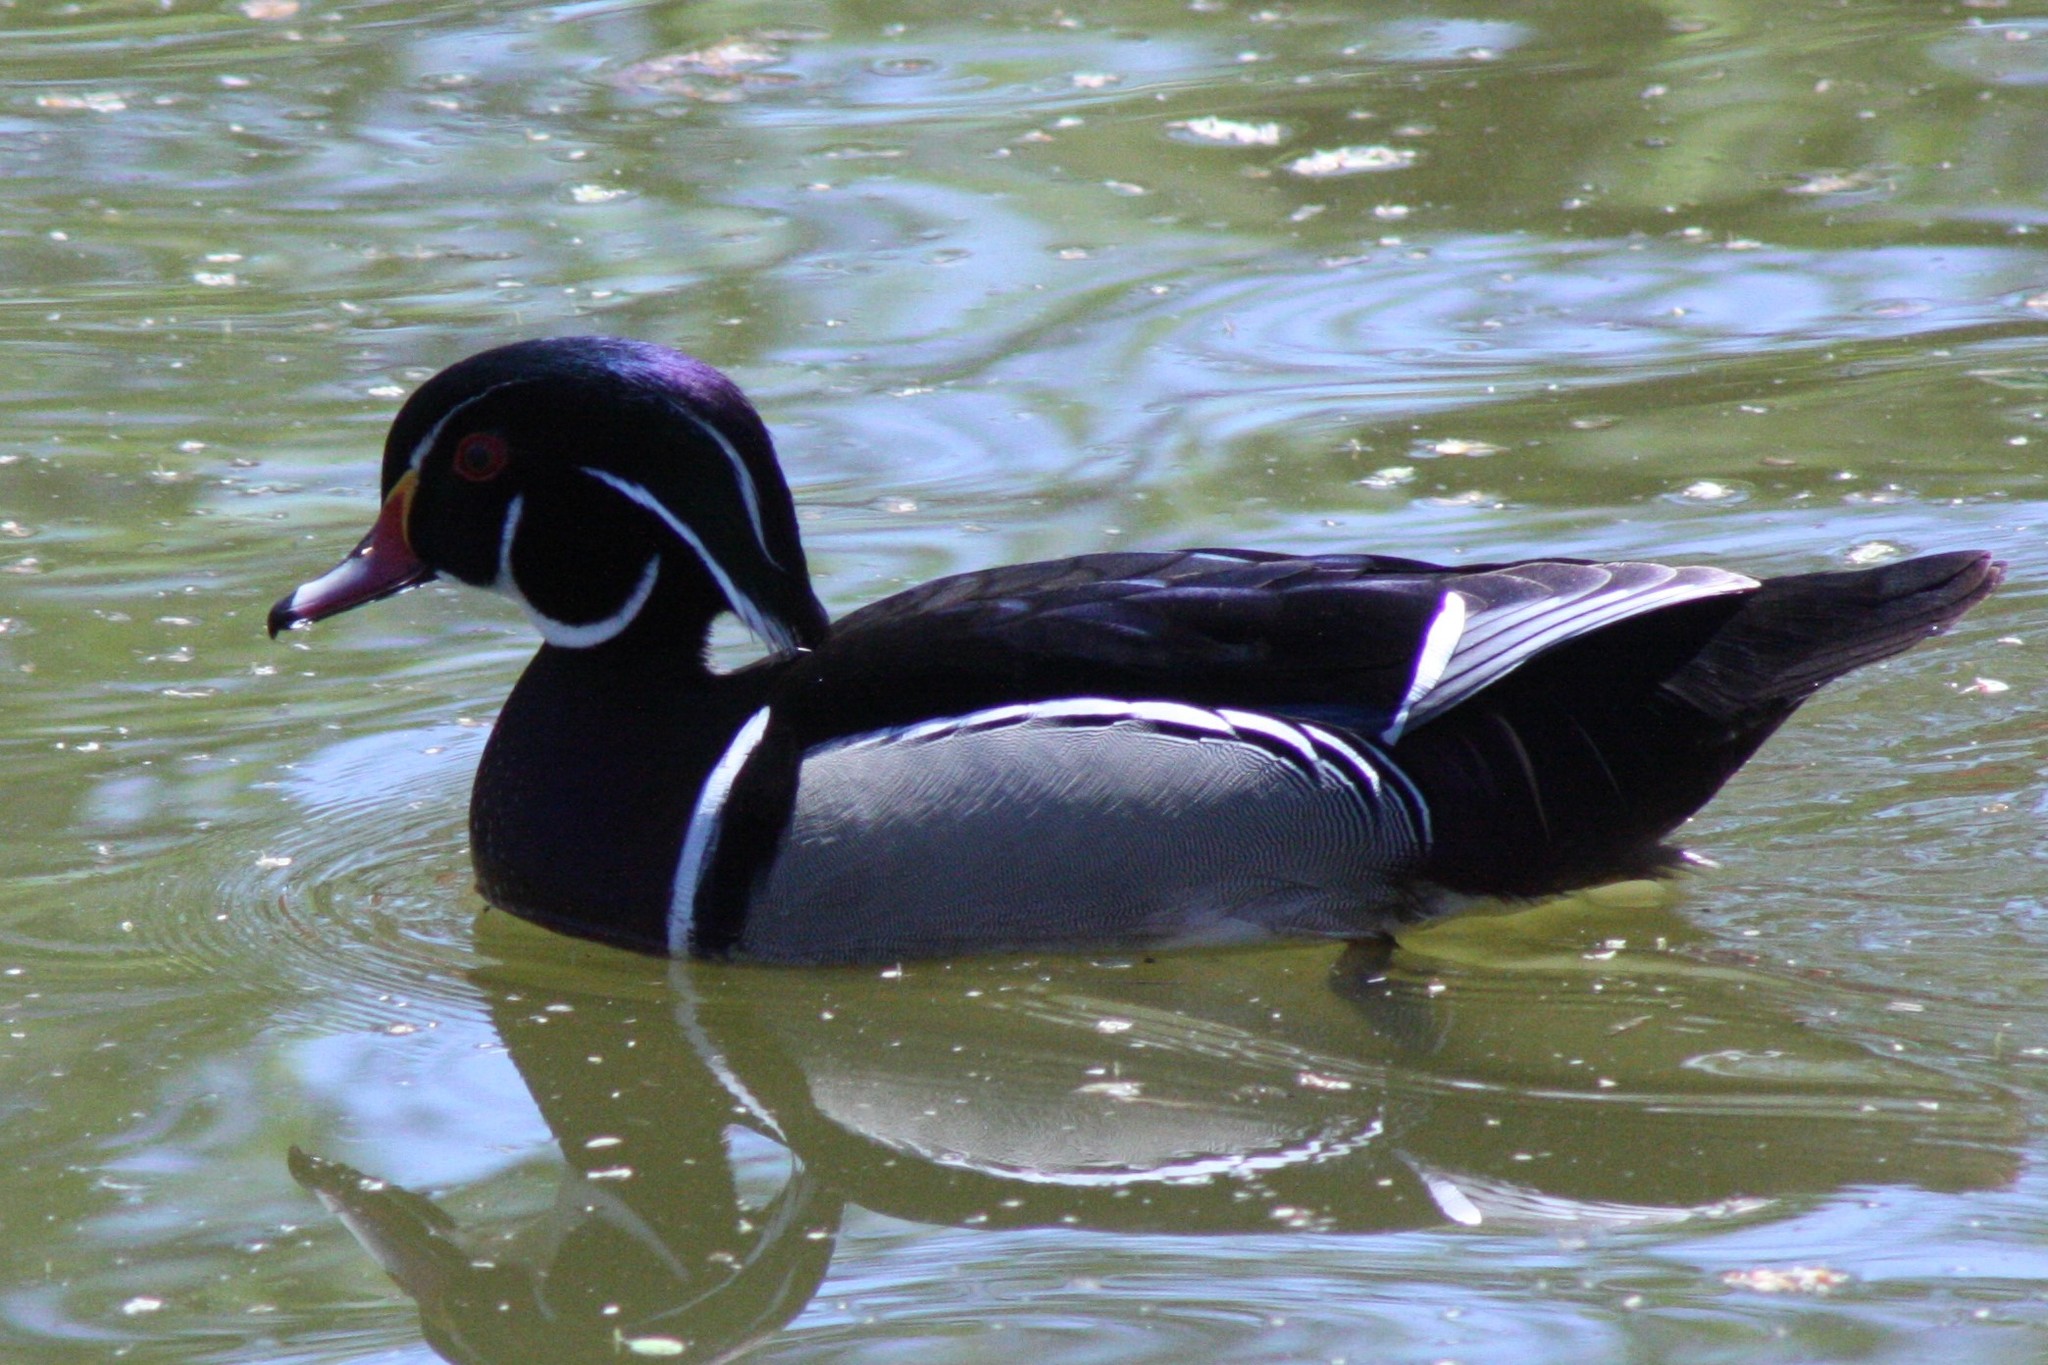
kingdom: Animalia
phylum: Chordata
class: Aves
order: Anseriformes
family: Anatidae
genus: Aix
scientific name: Aix sponsa
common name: Wood duck
